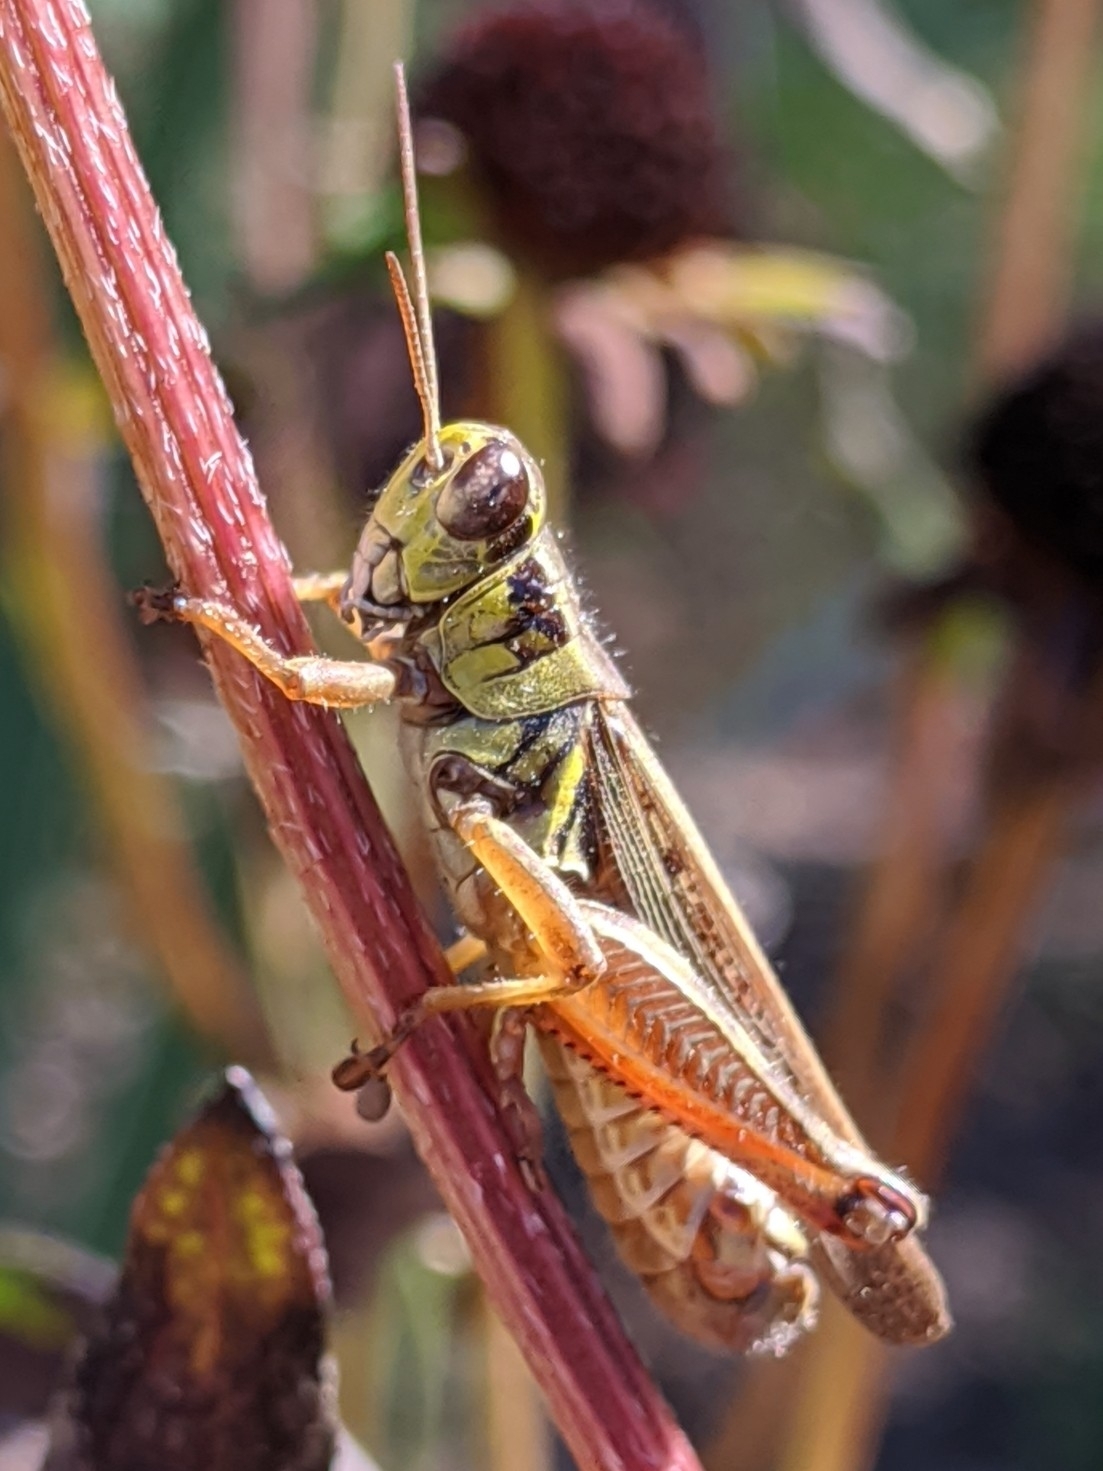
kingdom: Animalia
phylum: Arthropoda
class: Insecta
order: Orthoptera
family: Acrididae
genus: Melanoplus
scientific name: Melanoplus femurrubrum
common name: Red-legged grasshopper
